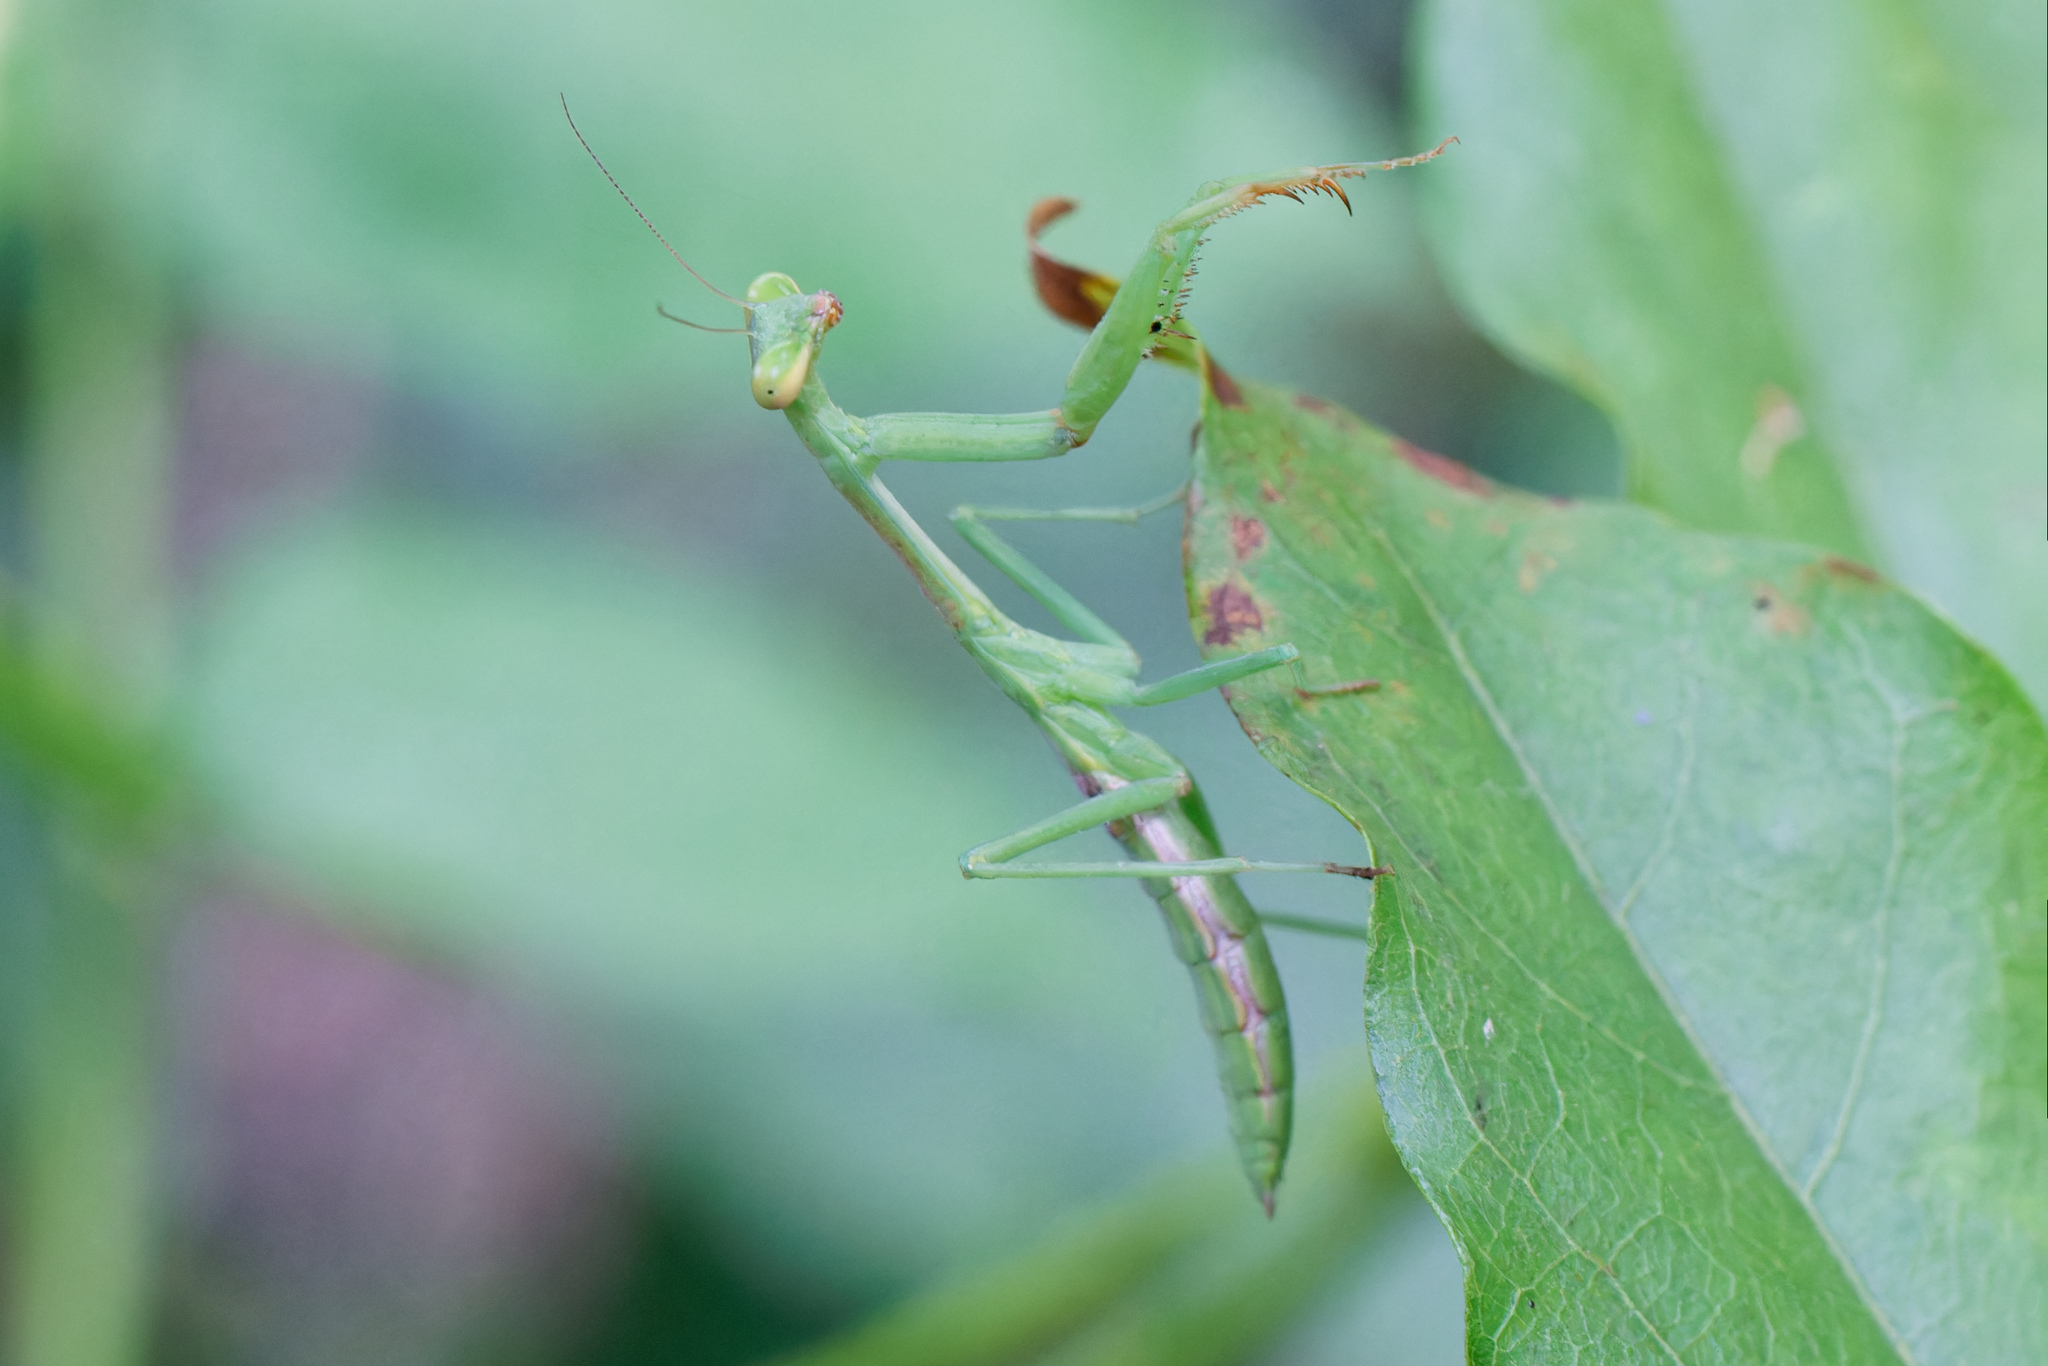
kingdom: Animalia
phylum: Arthropoda
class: Insecta
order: Mantodea
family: Mantidae
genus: Stagmomantis
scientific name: Stagmomantis carolina
